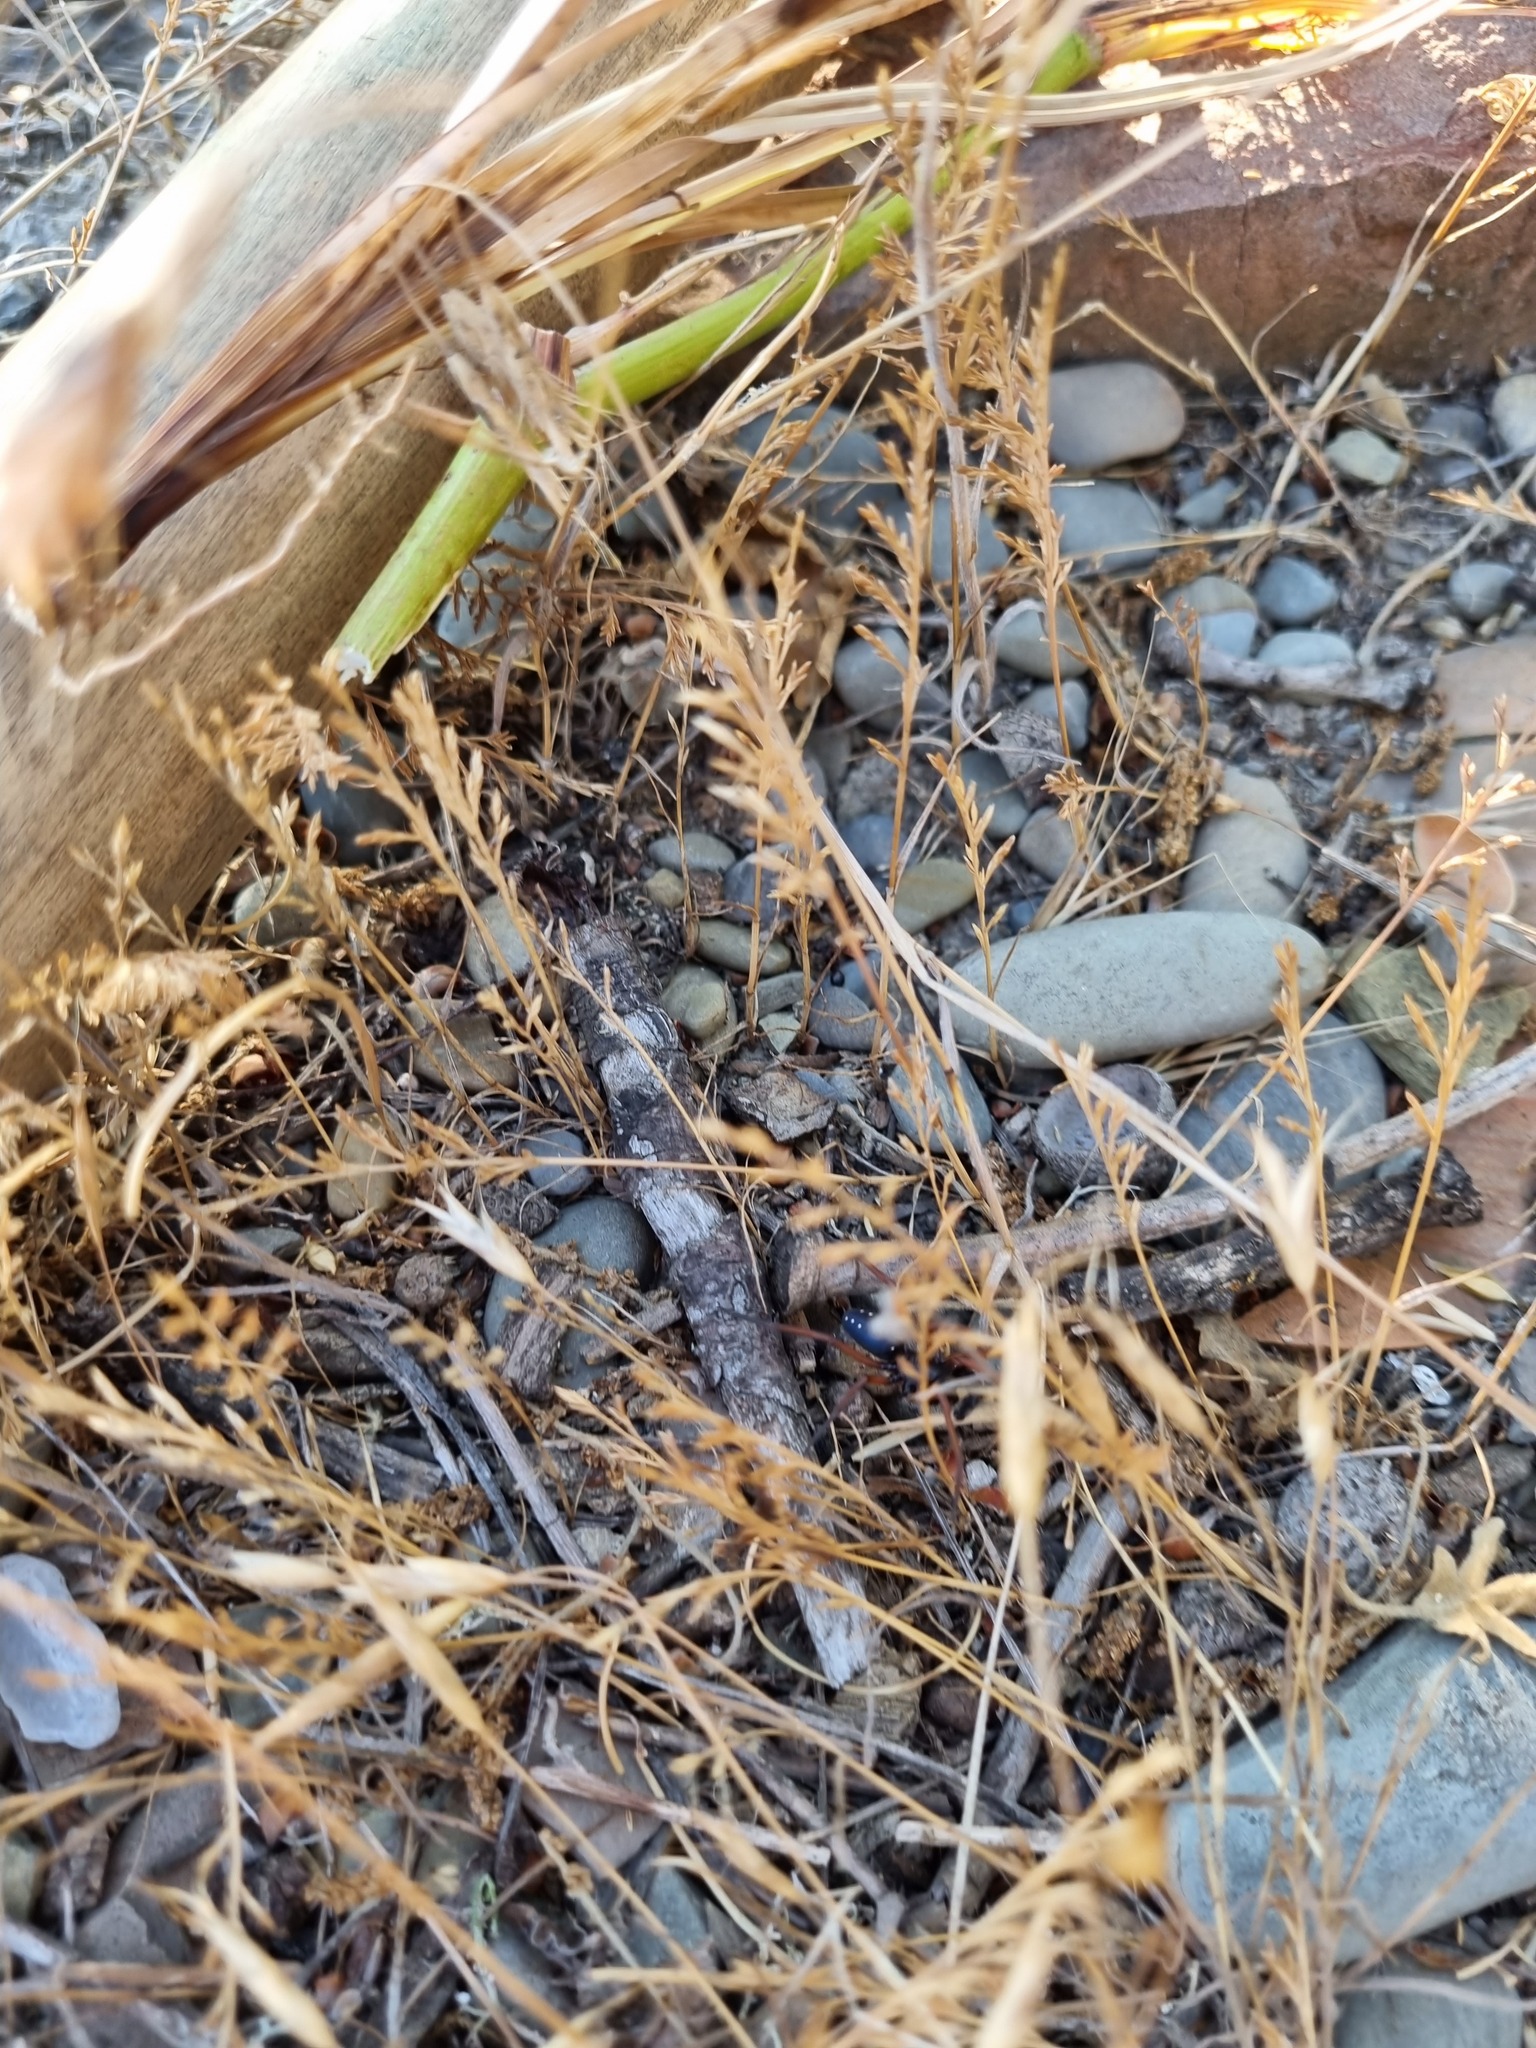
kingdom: Plantae
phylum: Tracheophyta
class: Liliopsida
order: Poales
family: Poaceae
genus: Catapodium
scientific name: Catapodium rigidum
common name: Fern-grass
